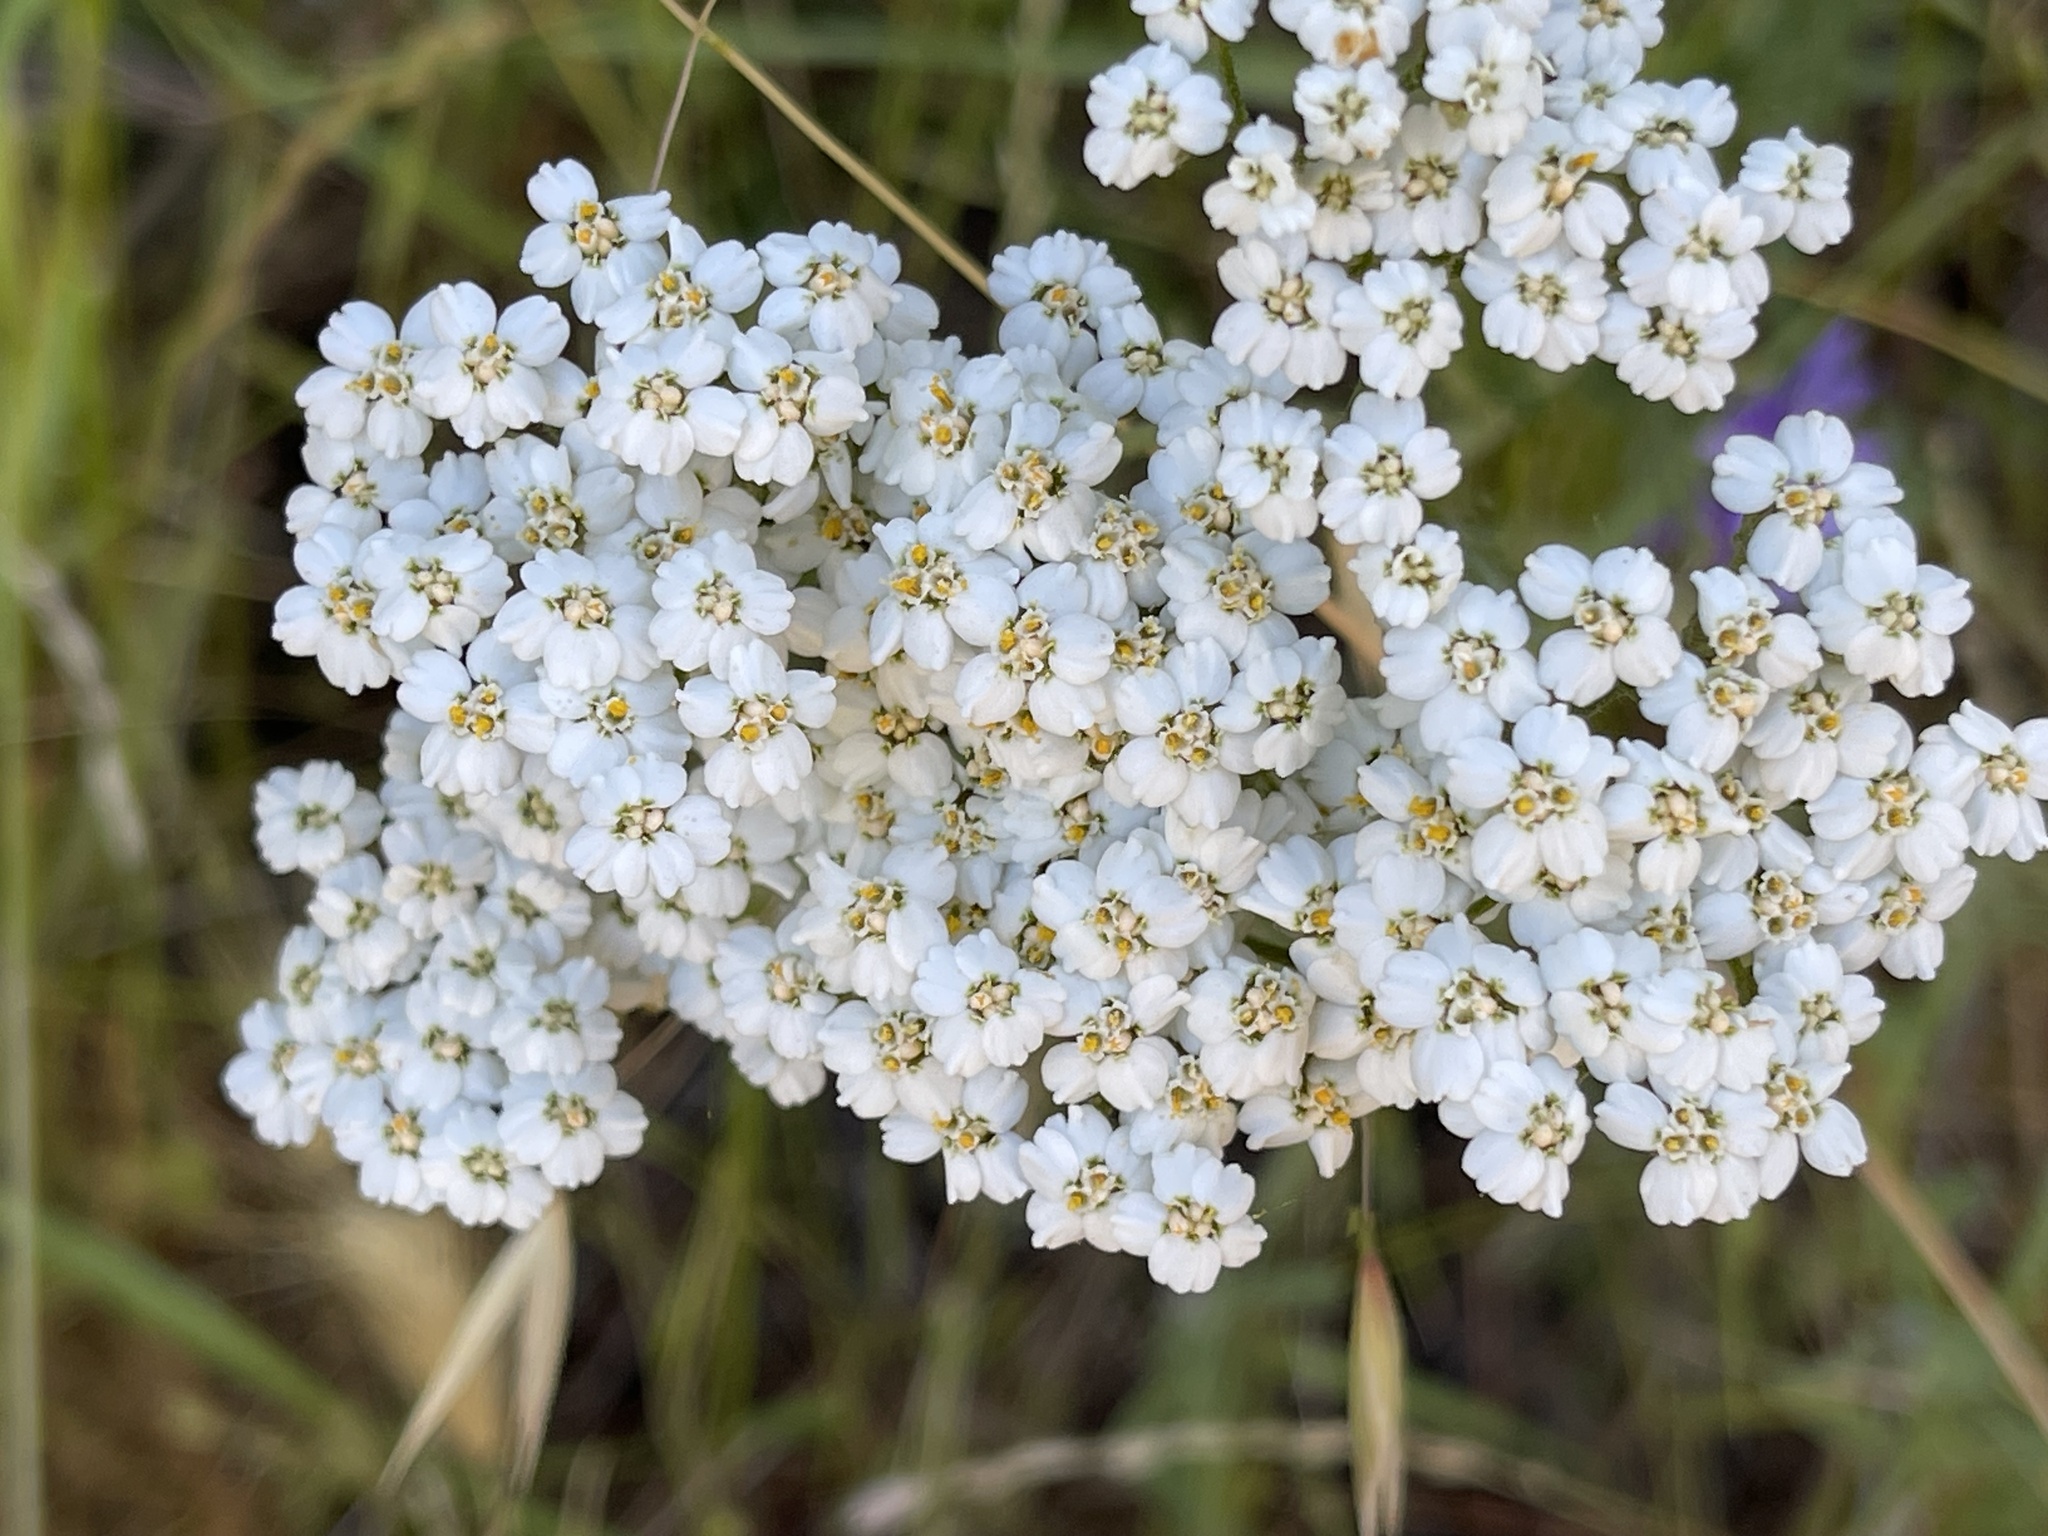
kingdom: Plantae
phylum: Tracheophyta
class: Magnoliopsida
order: Asterales
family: Asteraceae
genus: Achillea
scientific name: Achillea millefolium
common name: Yarrow
